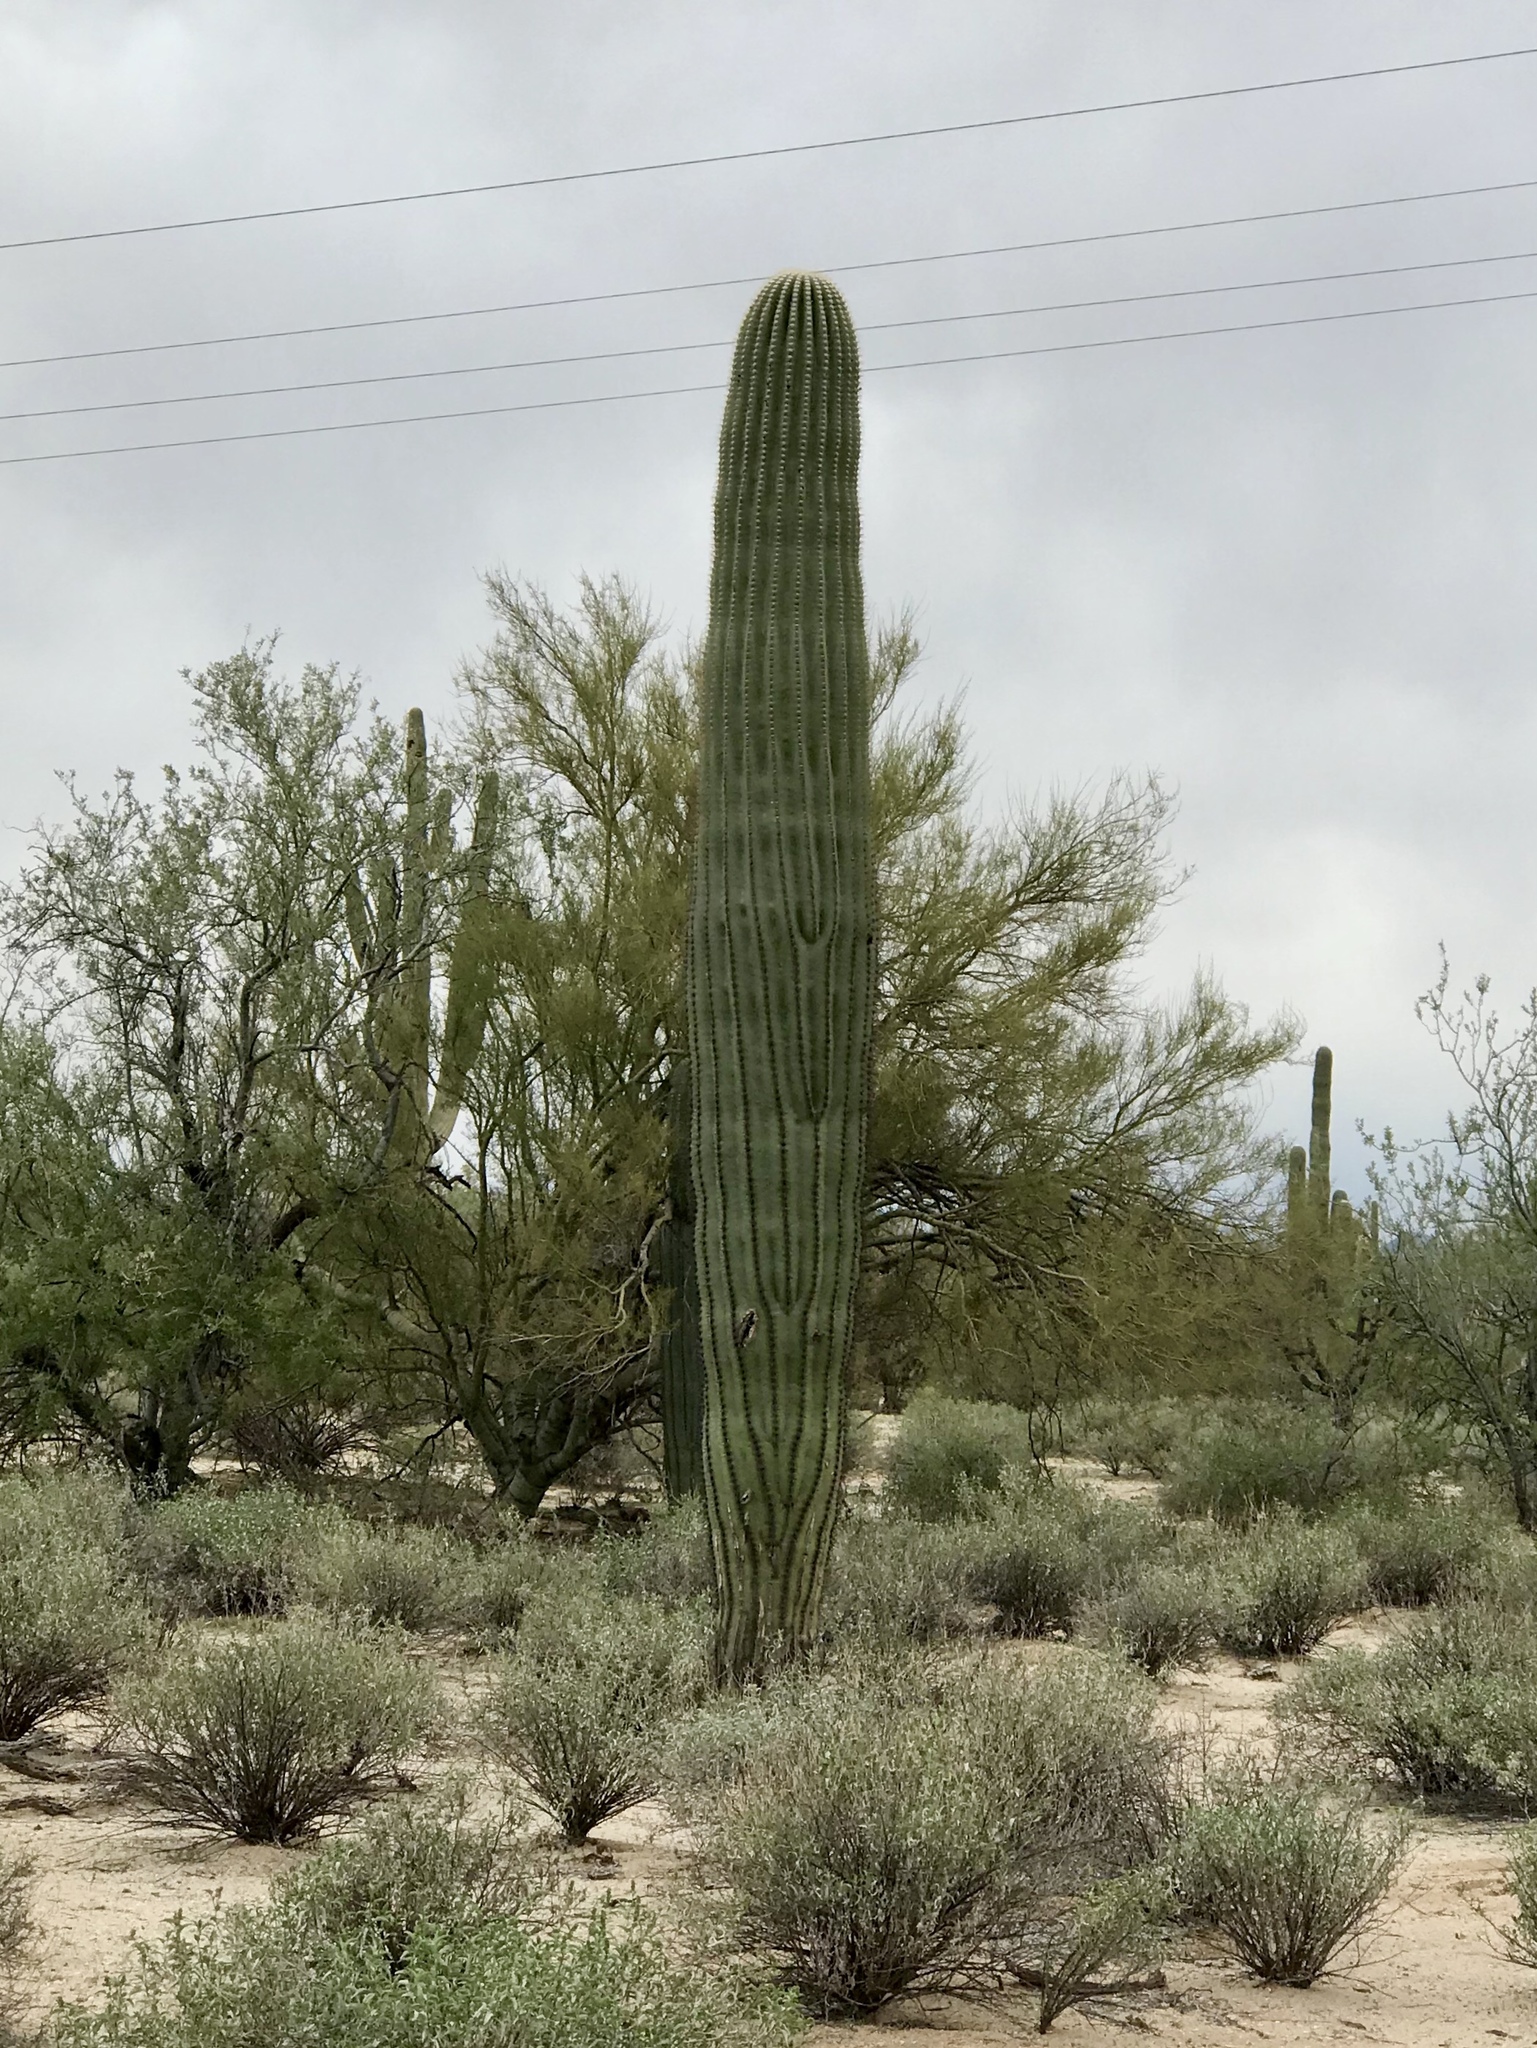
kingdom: Plantae
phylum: Tracheophyta
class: Magnoliopsida
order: Caryophyllales
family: Cactaceae
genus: Carnegiea
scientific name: Carnegiea gigantea
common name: Saguaro
